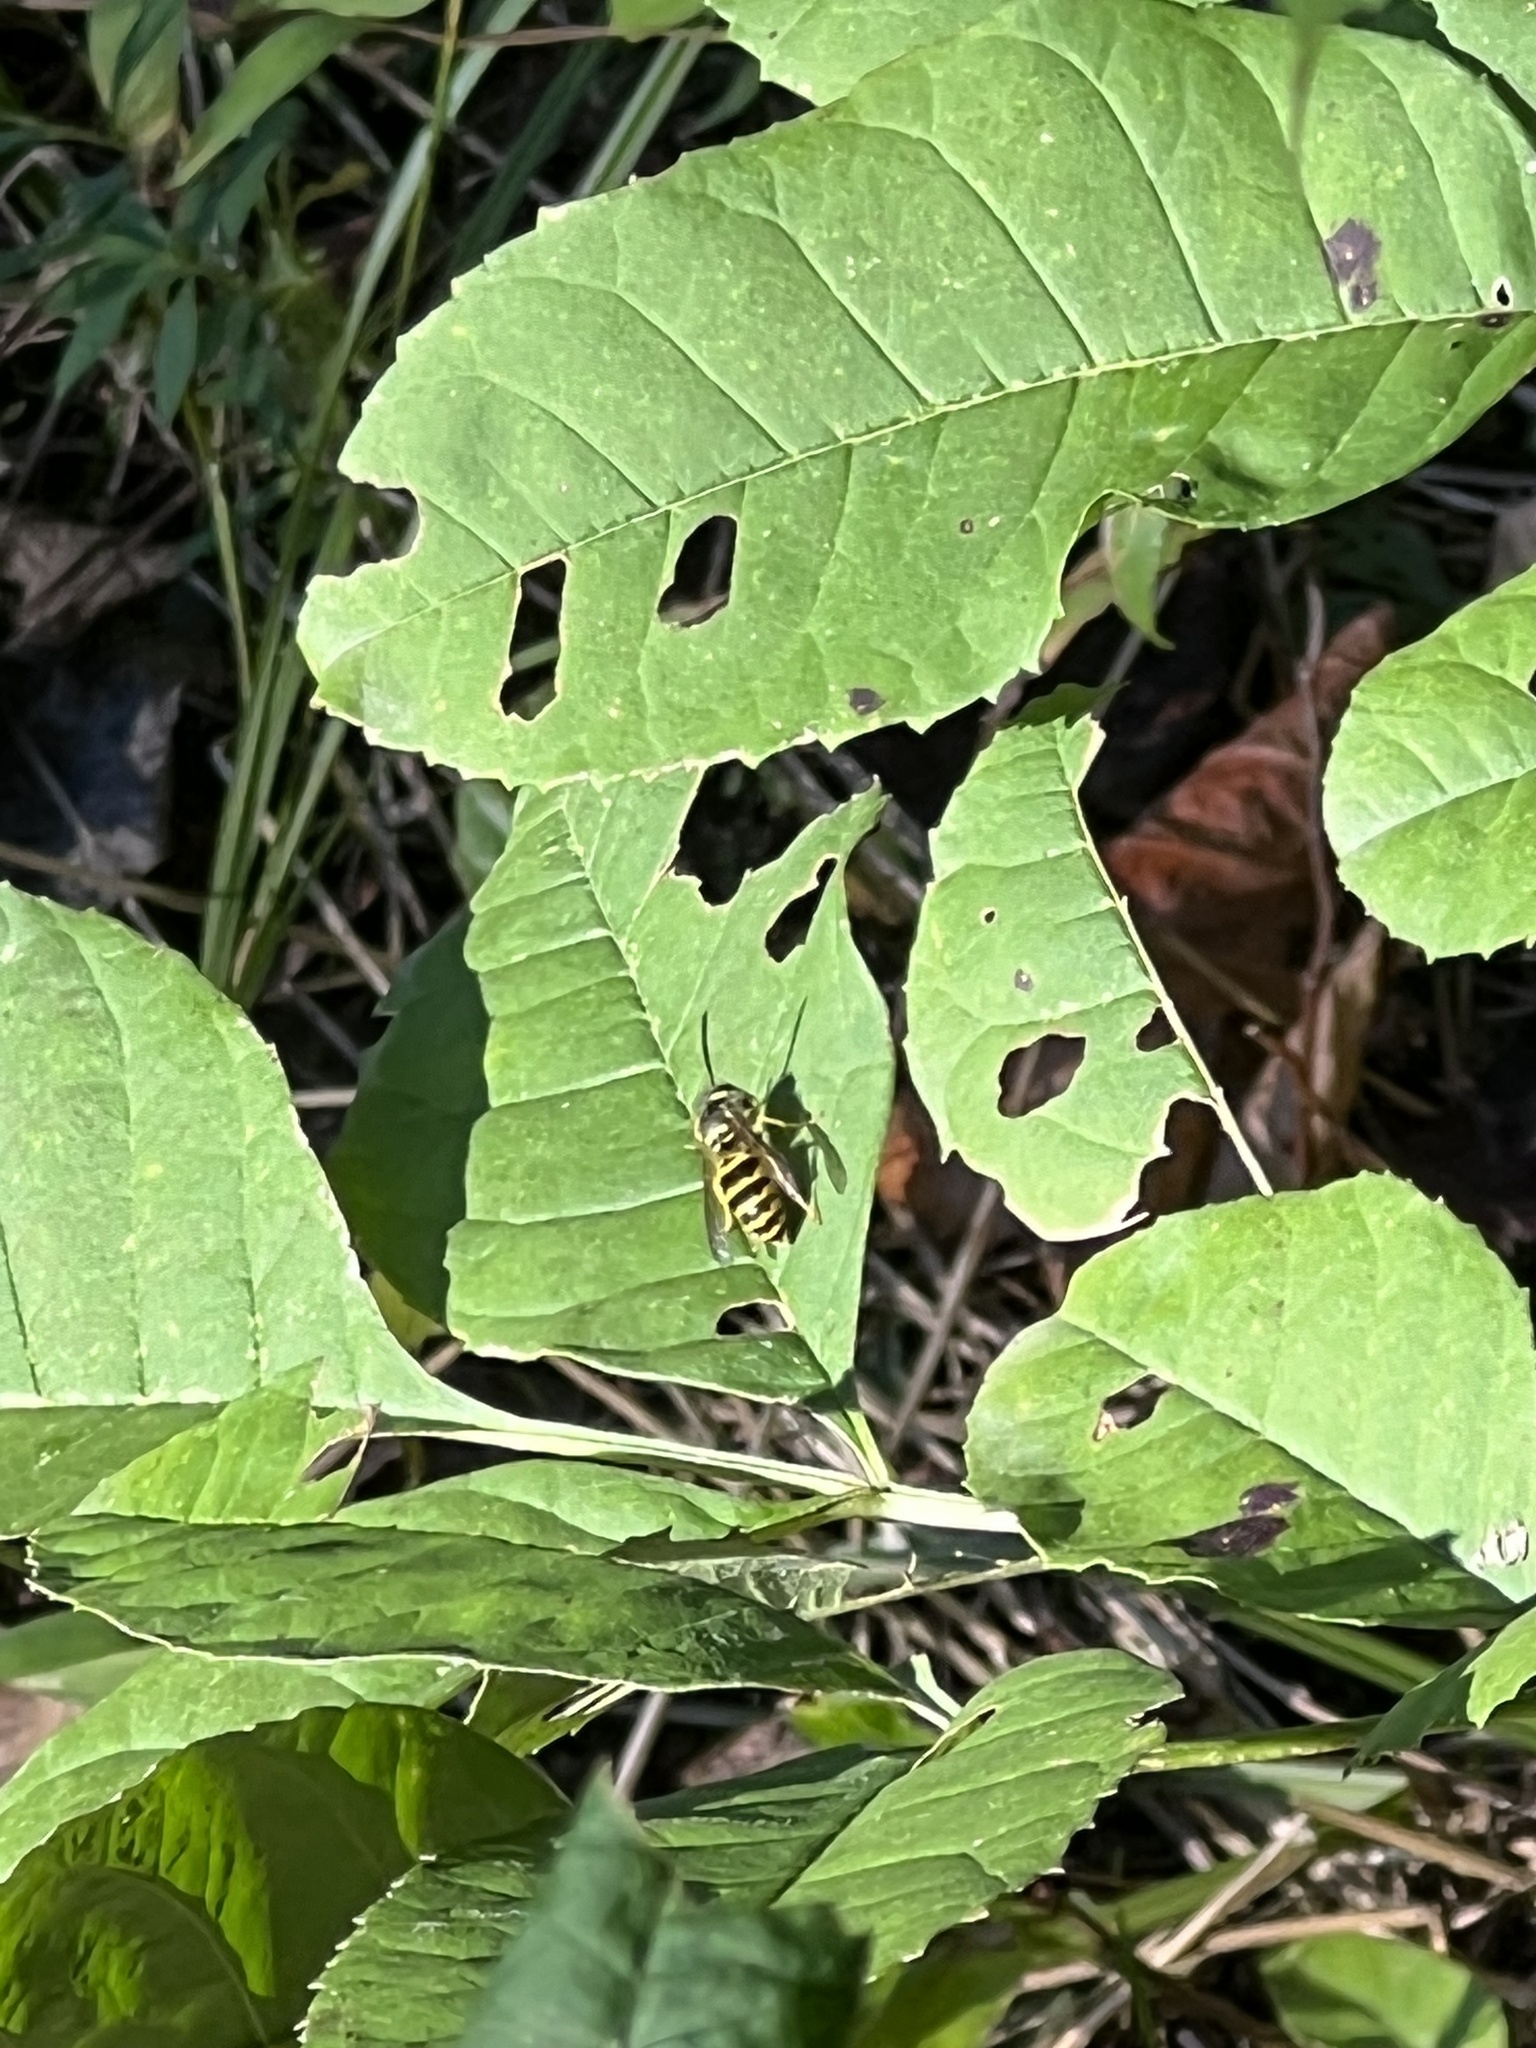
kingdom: Animalia
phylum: Arthropoda
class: Insecta
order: Hymenoptera
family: Vespidae
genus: Vespula
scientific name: Vespula maculifrons
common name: Eastern yellowjacket
